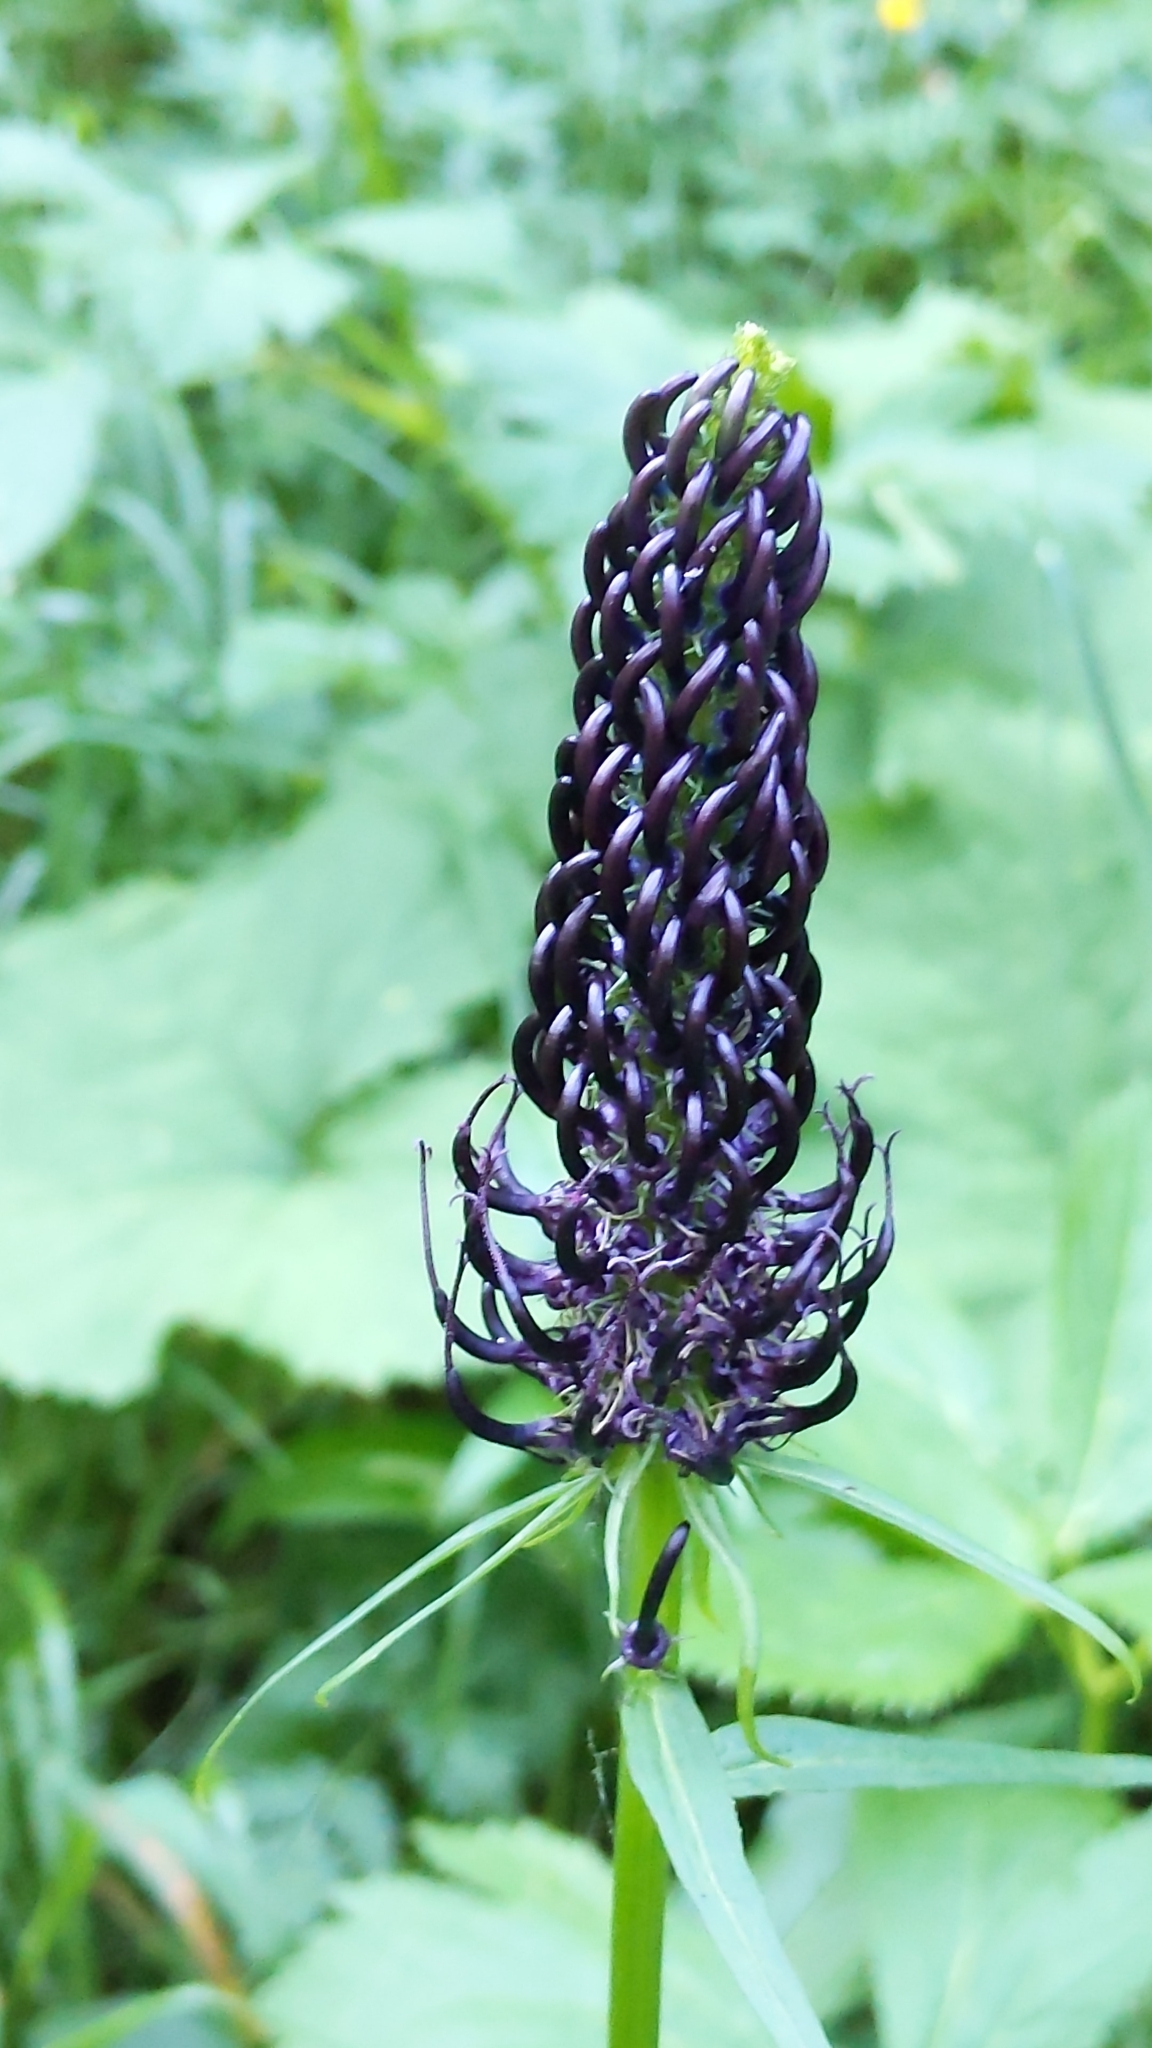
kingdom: Plantae
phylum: Tracheophyta
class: Magnoliopsida
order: Asterales
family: Campanulaceae
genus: Phyteuma
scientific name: Phyteuma ovatum
